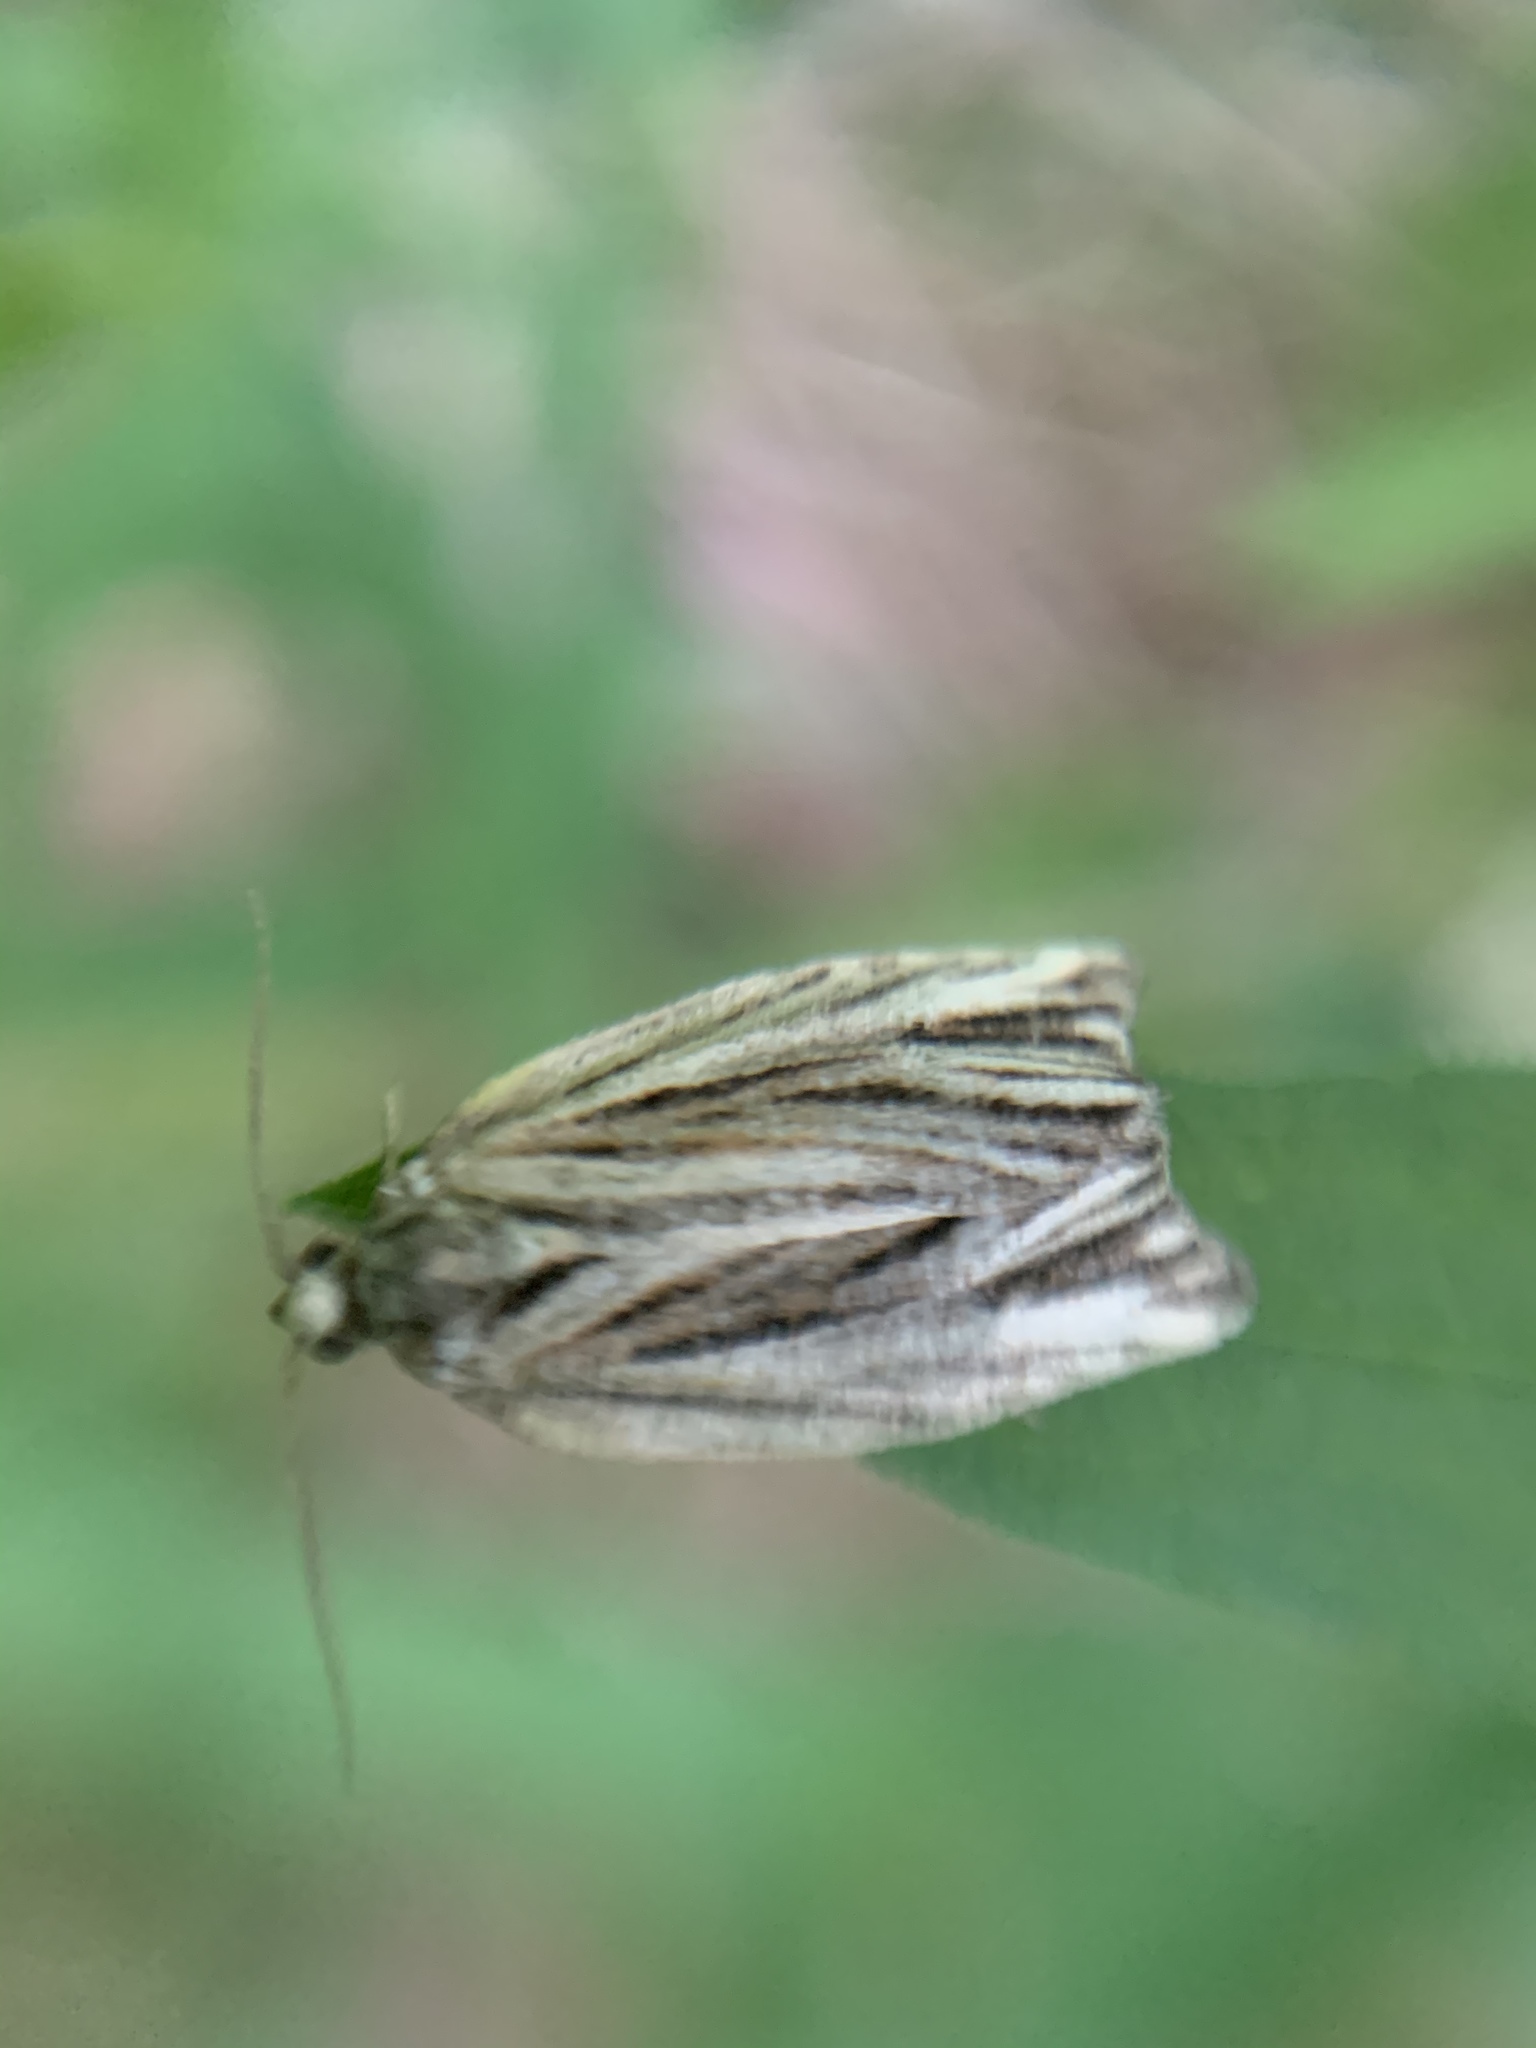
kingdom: Animalia
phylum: Arthropoda
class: Insecta
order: Lepidoptera
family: Tortricidae
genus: Archips
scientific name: Archips strianus
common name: Striated tortrix moth
